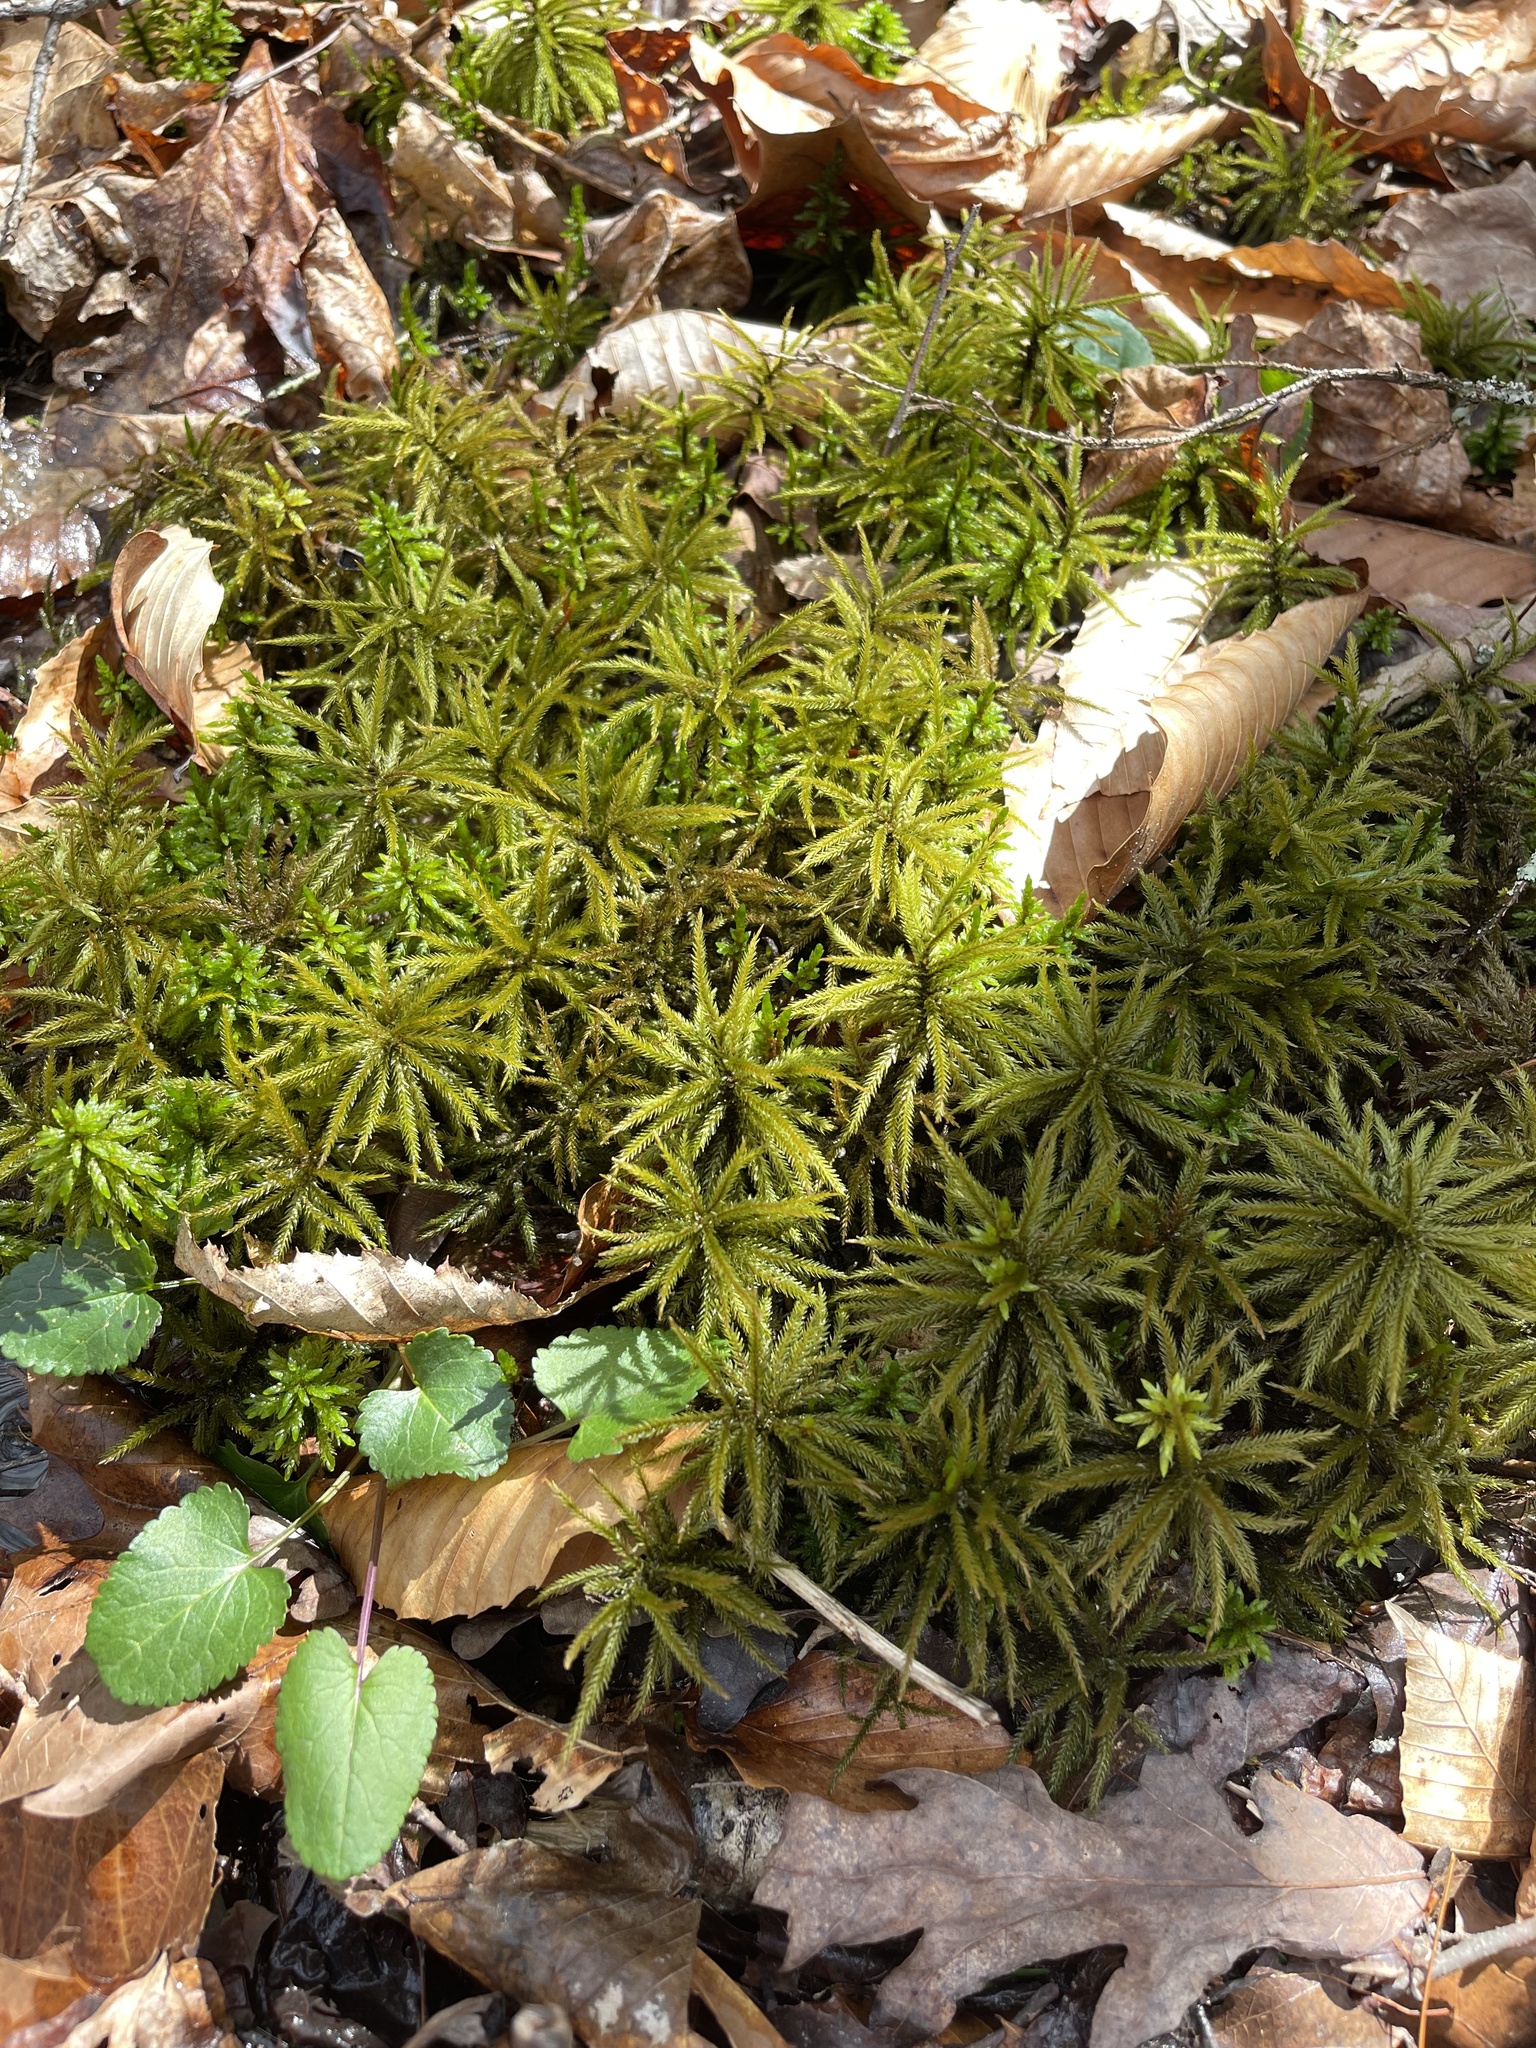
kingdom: Plantae
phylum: Bryophyta
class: Bryopsida
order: Hypnales
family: Climaciaceae
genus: Climacium
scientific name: Climacium americanum
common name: American tree moss
